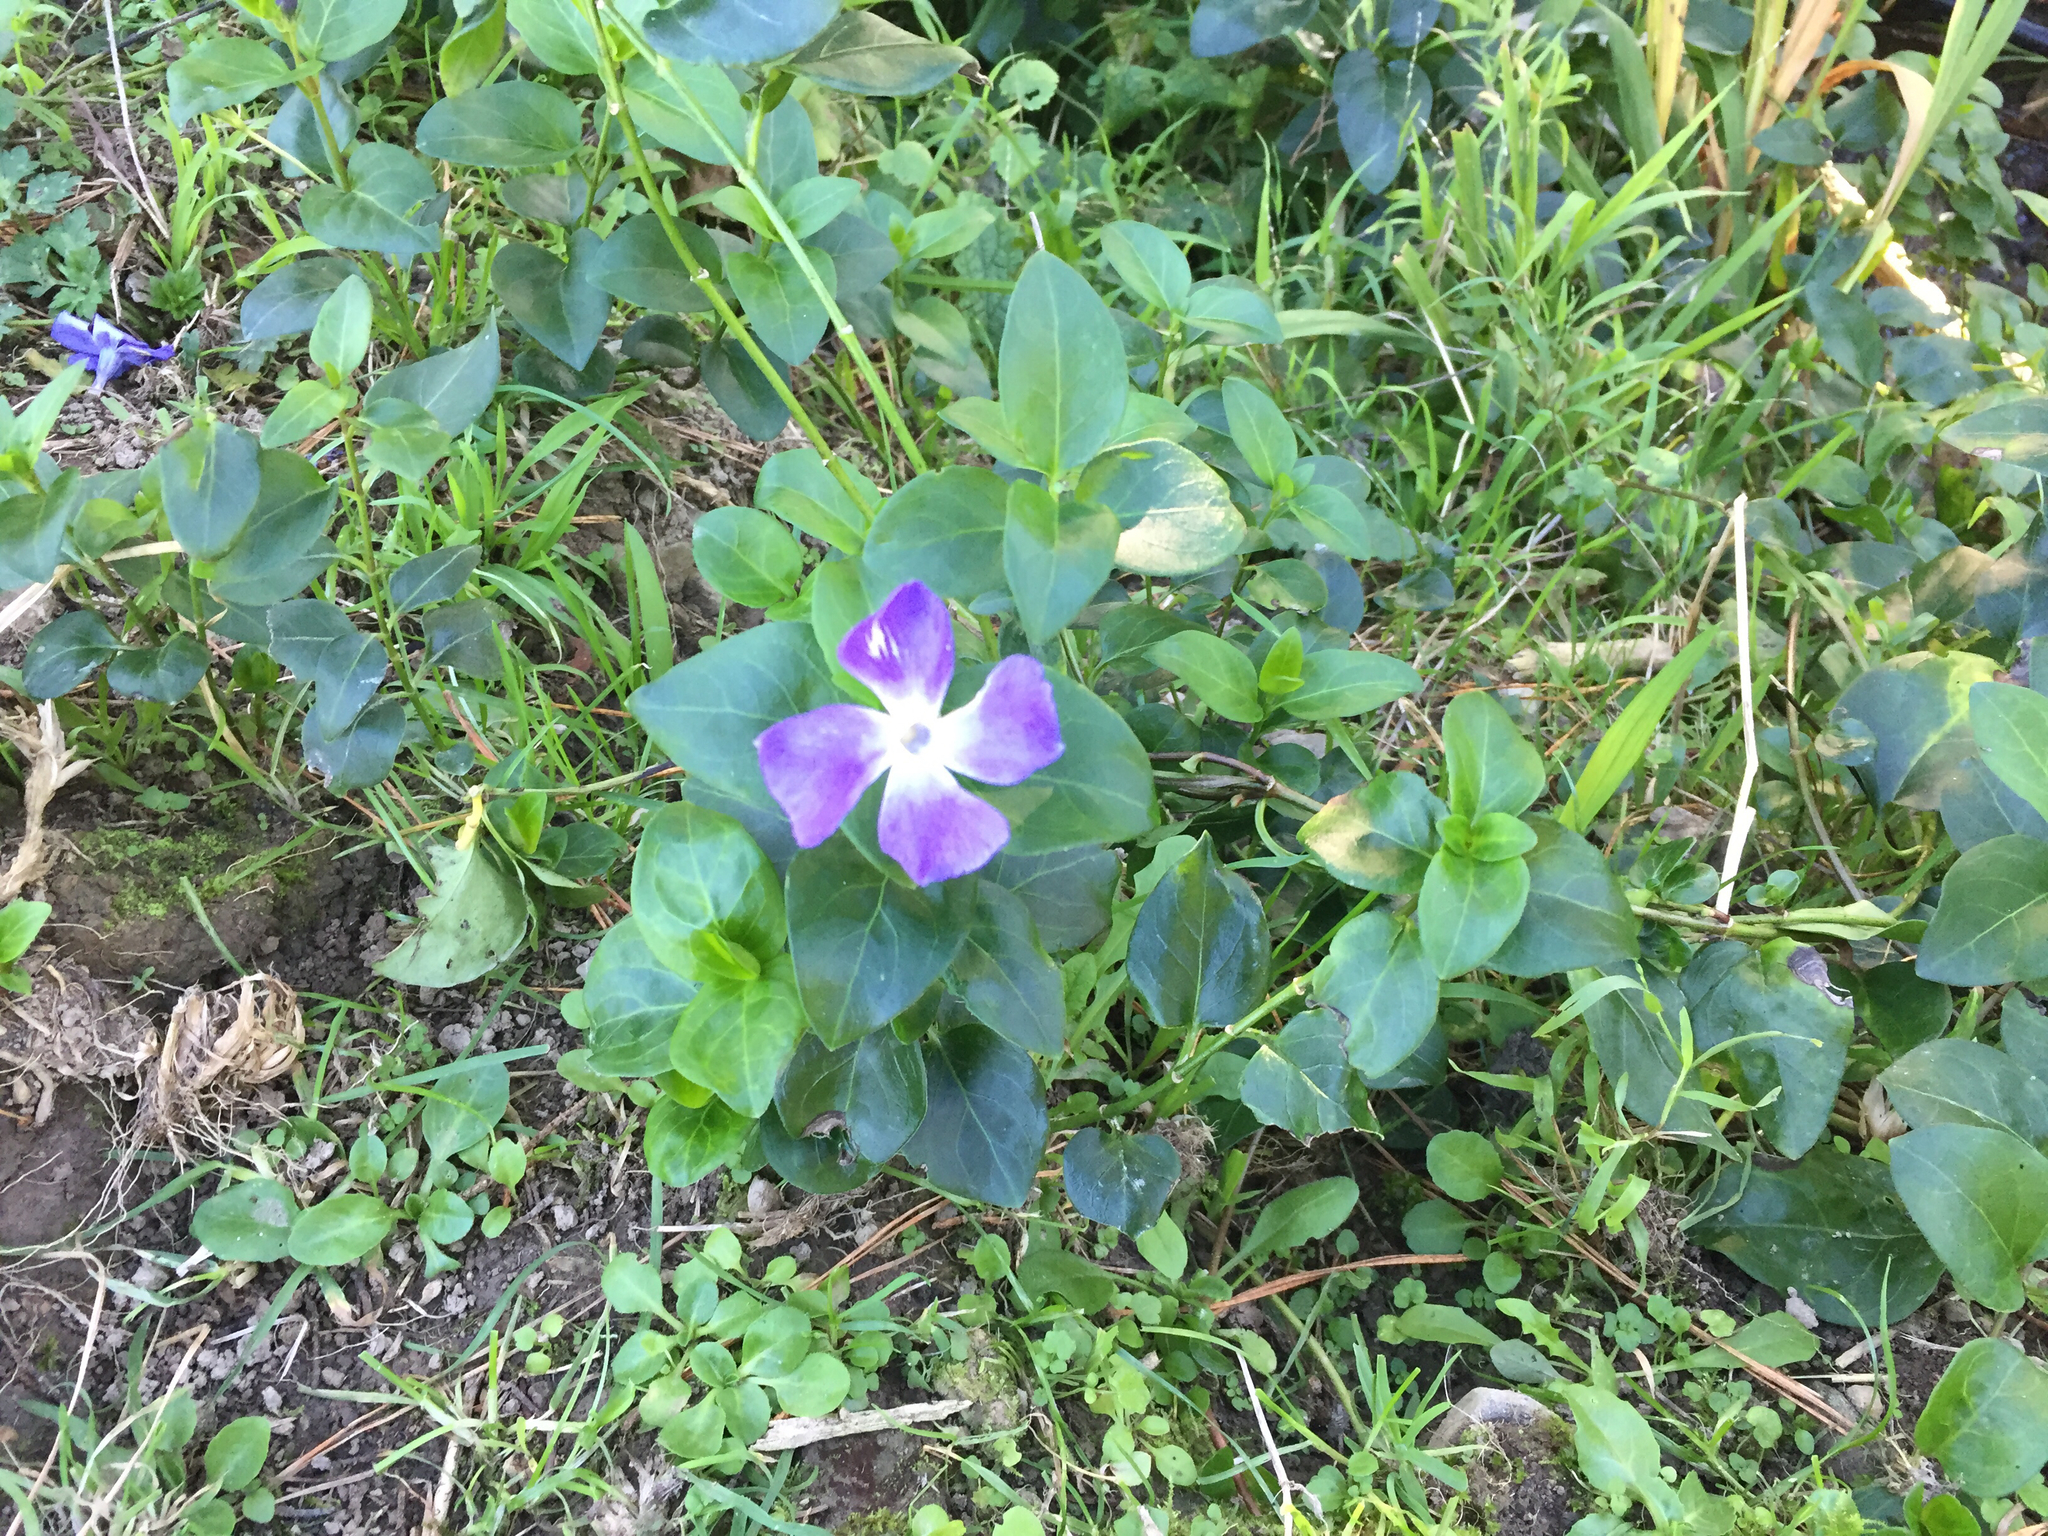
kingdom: Plantae
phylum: Tracheophyta
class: Magnoliopsida
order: Gentianales
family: Apocynaceae
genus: Vinca
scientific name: Vinca major
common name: Greater periwinkle
